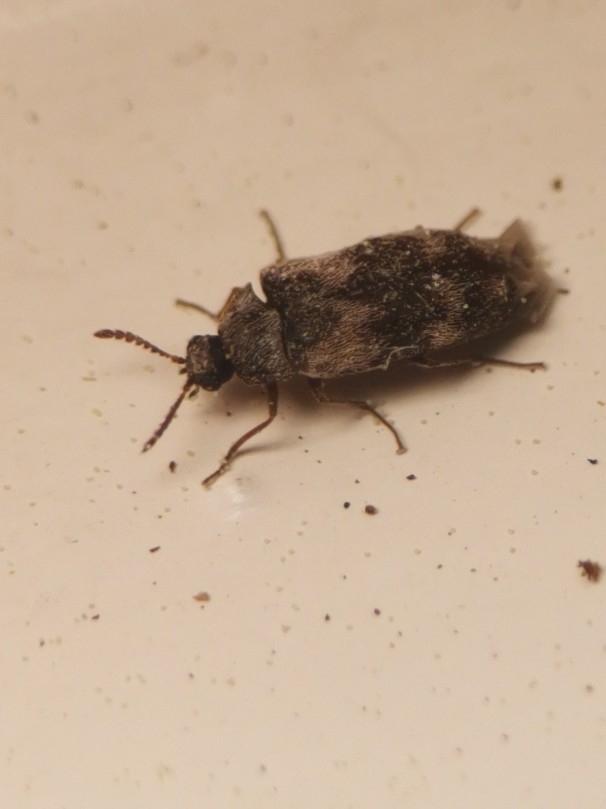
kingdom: Animalia
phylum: Arthropoda
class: Insecta
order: Coleoptera
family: Dermestidae
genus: Trogoderma
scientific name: Trogoderma angustum
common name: Skin beetle
